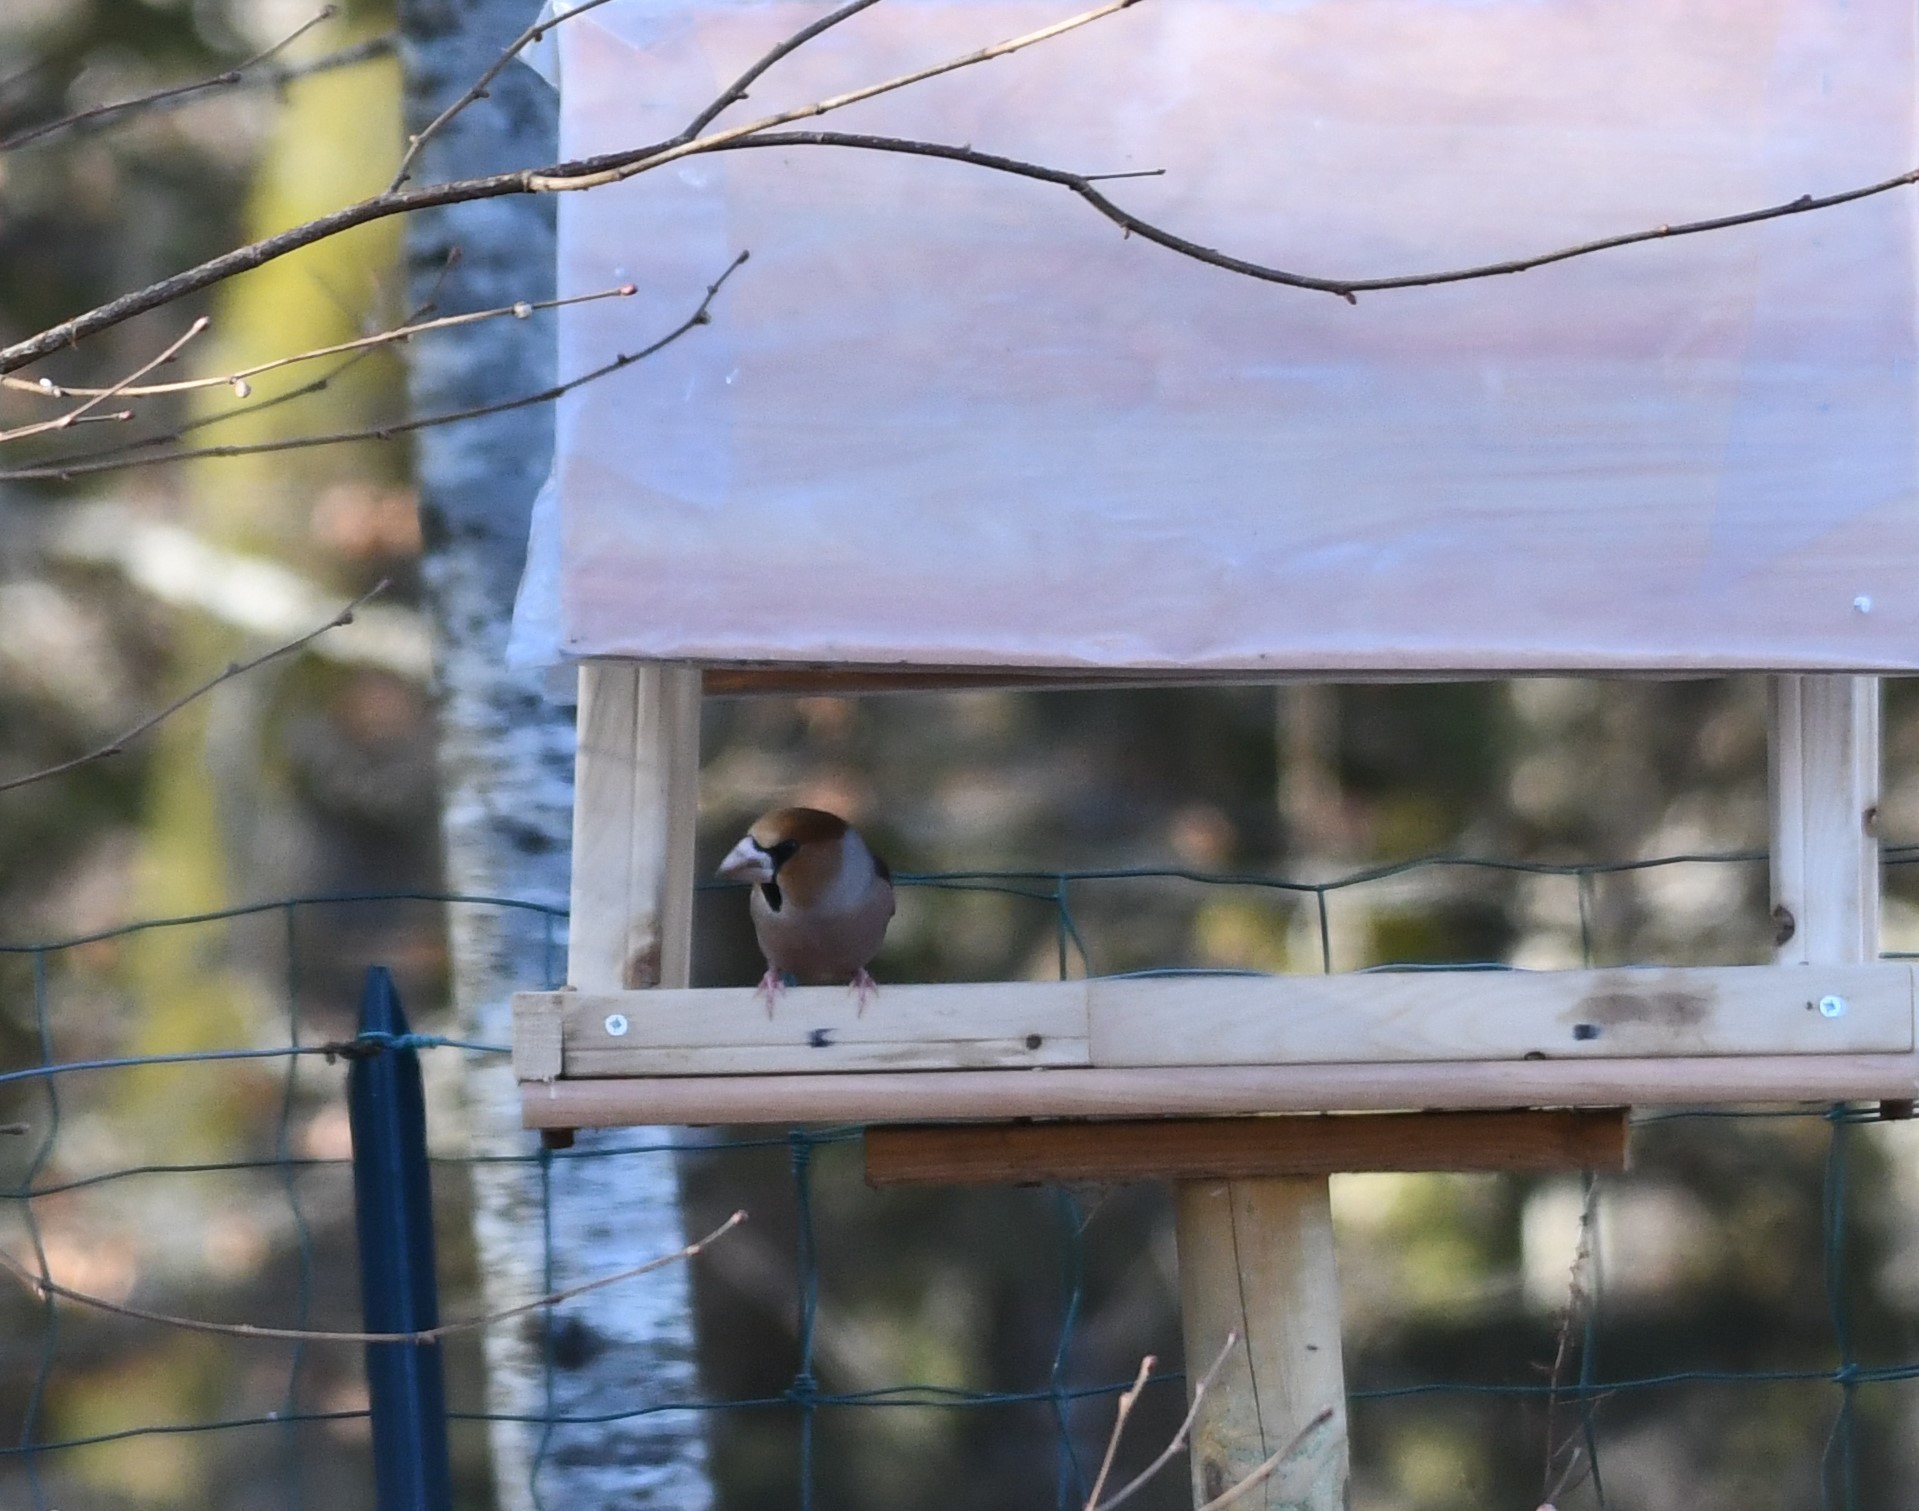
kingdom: Animalia
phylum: Chordata
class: Aves
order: Passeriformes
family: Fringillidae
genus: Coccothraustes
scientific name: Coccothraustes coccothraustes
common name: Hawfinch
